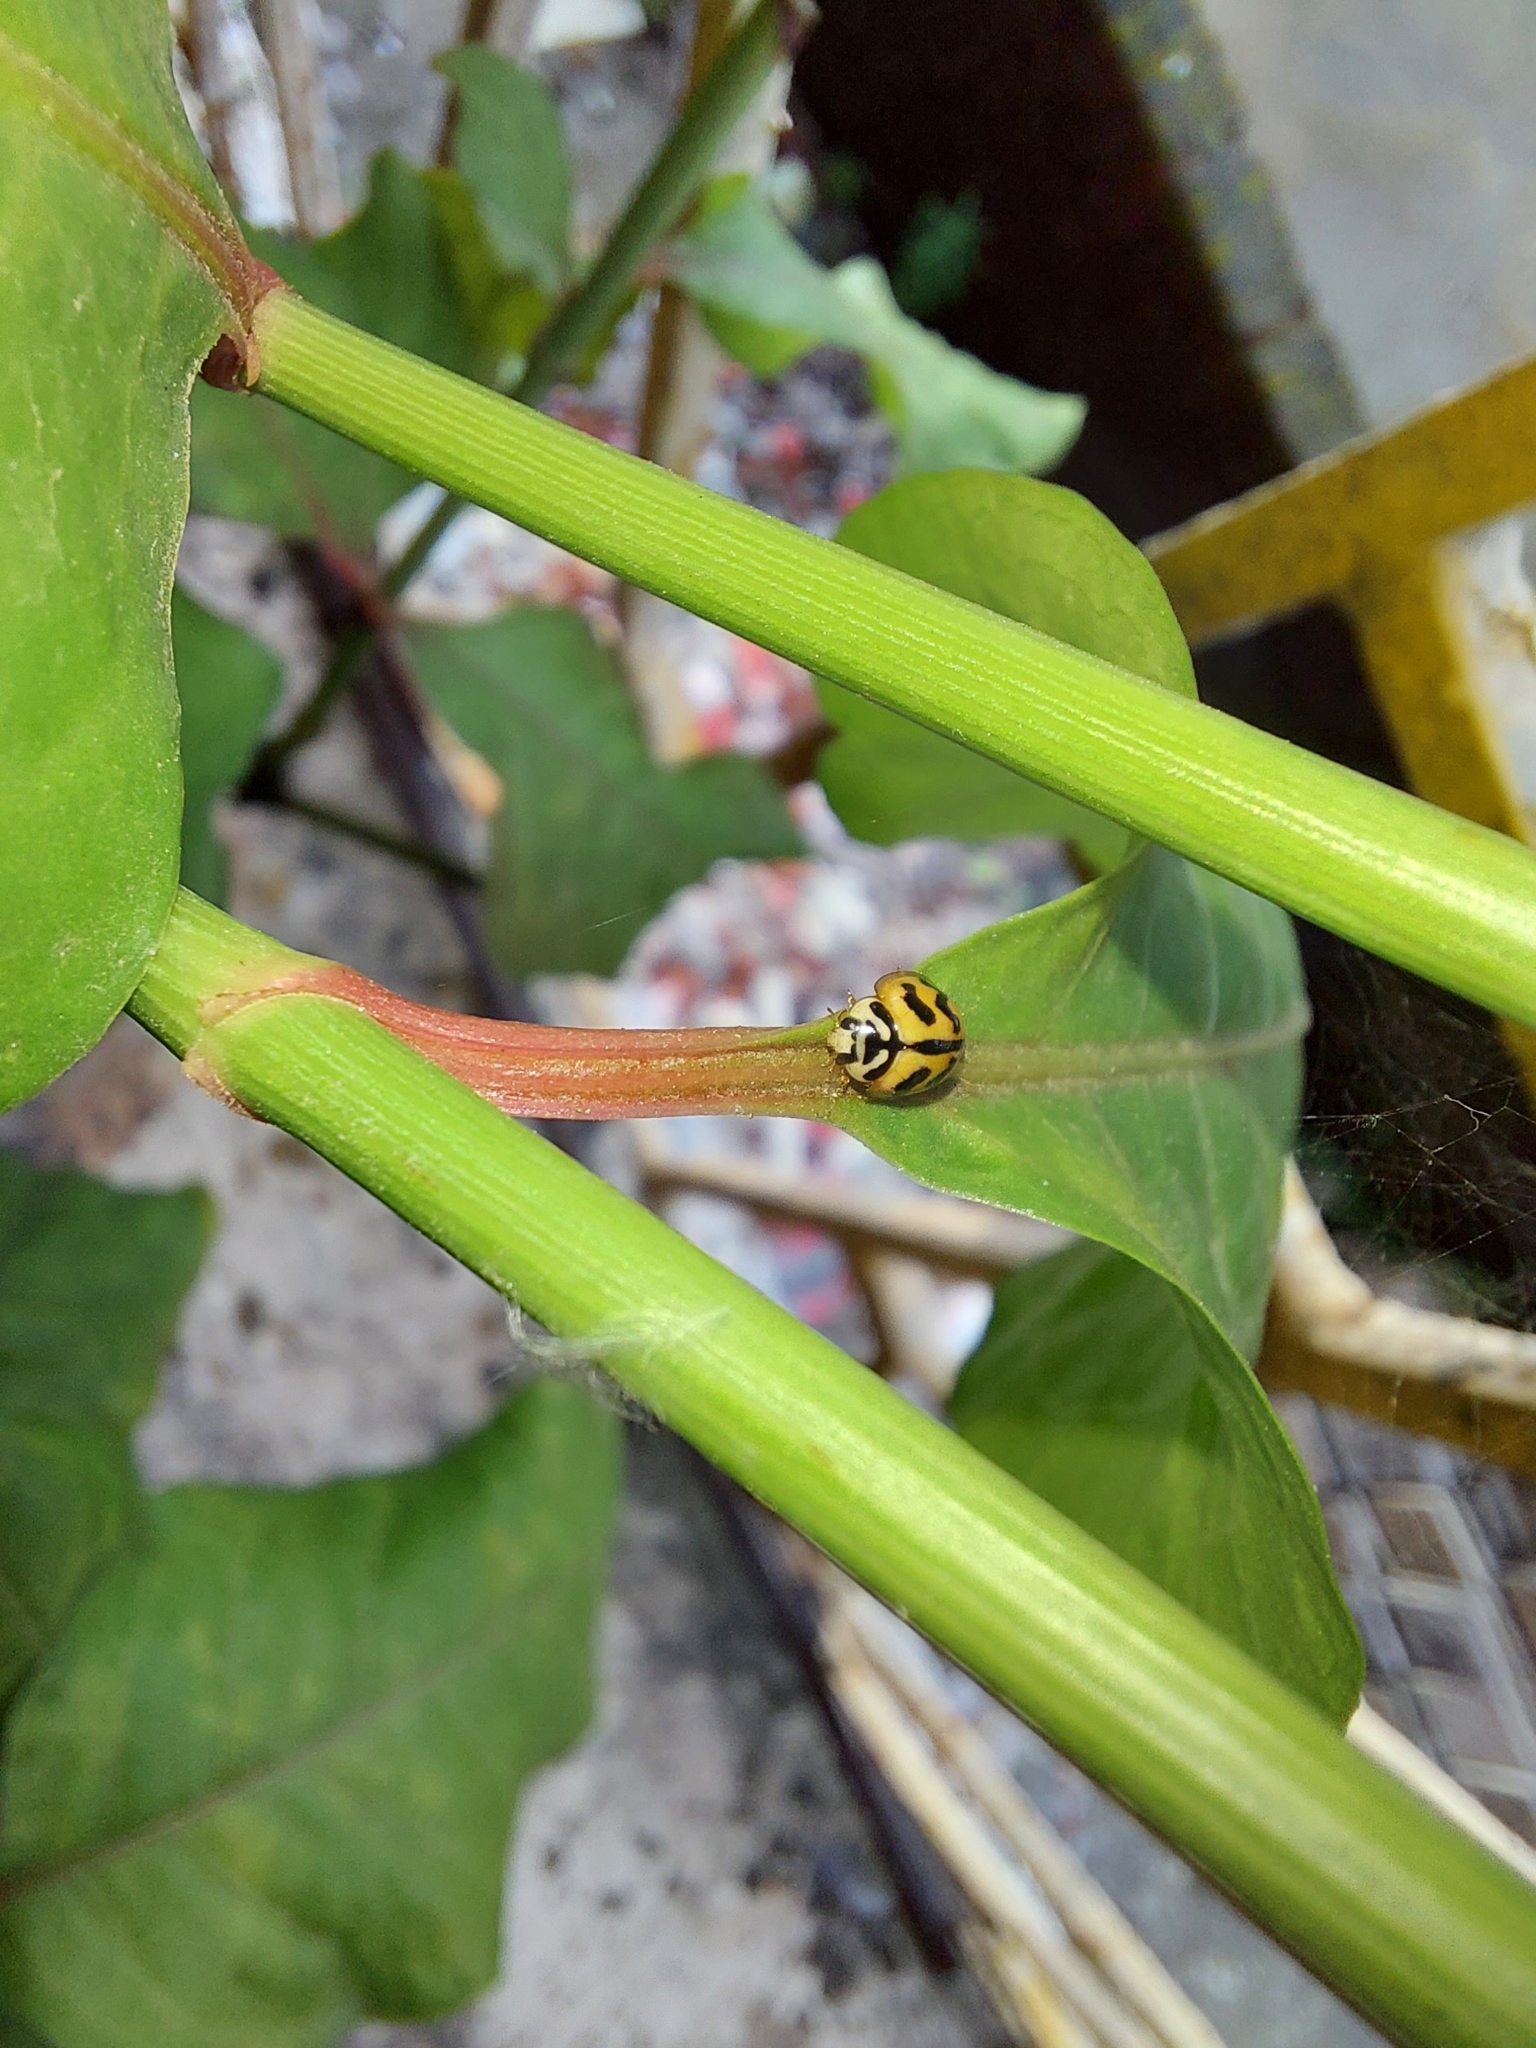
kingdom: Animalia
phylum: Arthropoda
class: Insecta
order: Coleoptera
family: Coccinellidae
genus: Cheilomenes
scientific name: Cheilomenes sexmaculata
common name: Ladybird beetle
